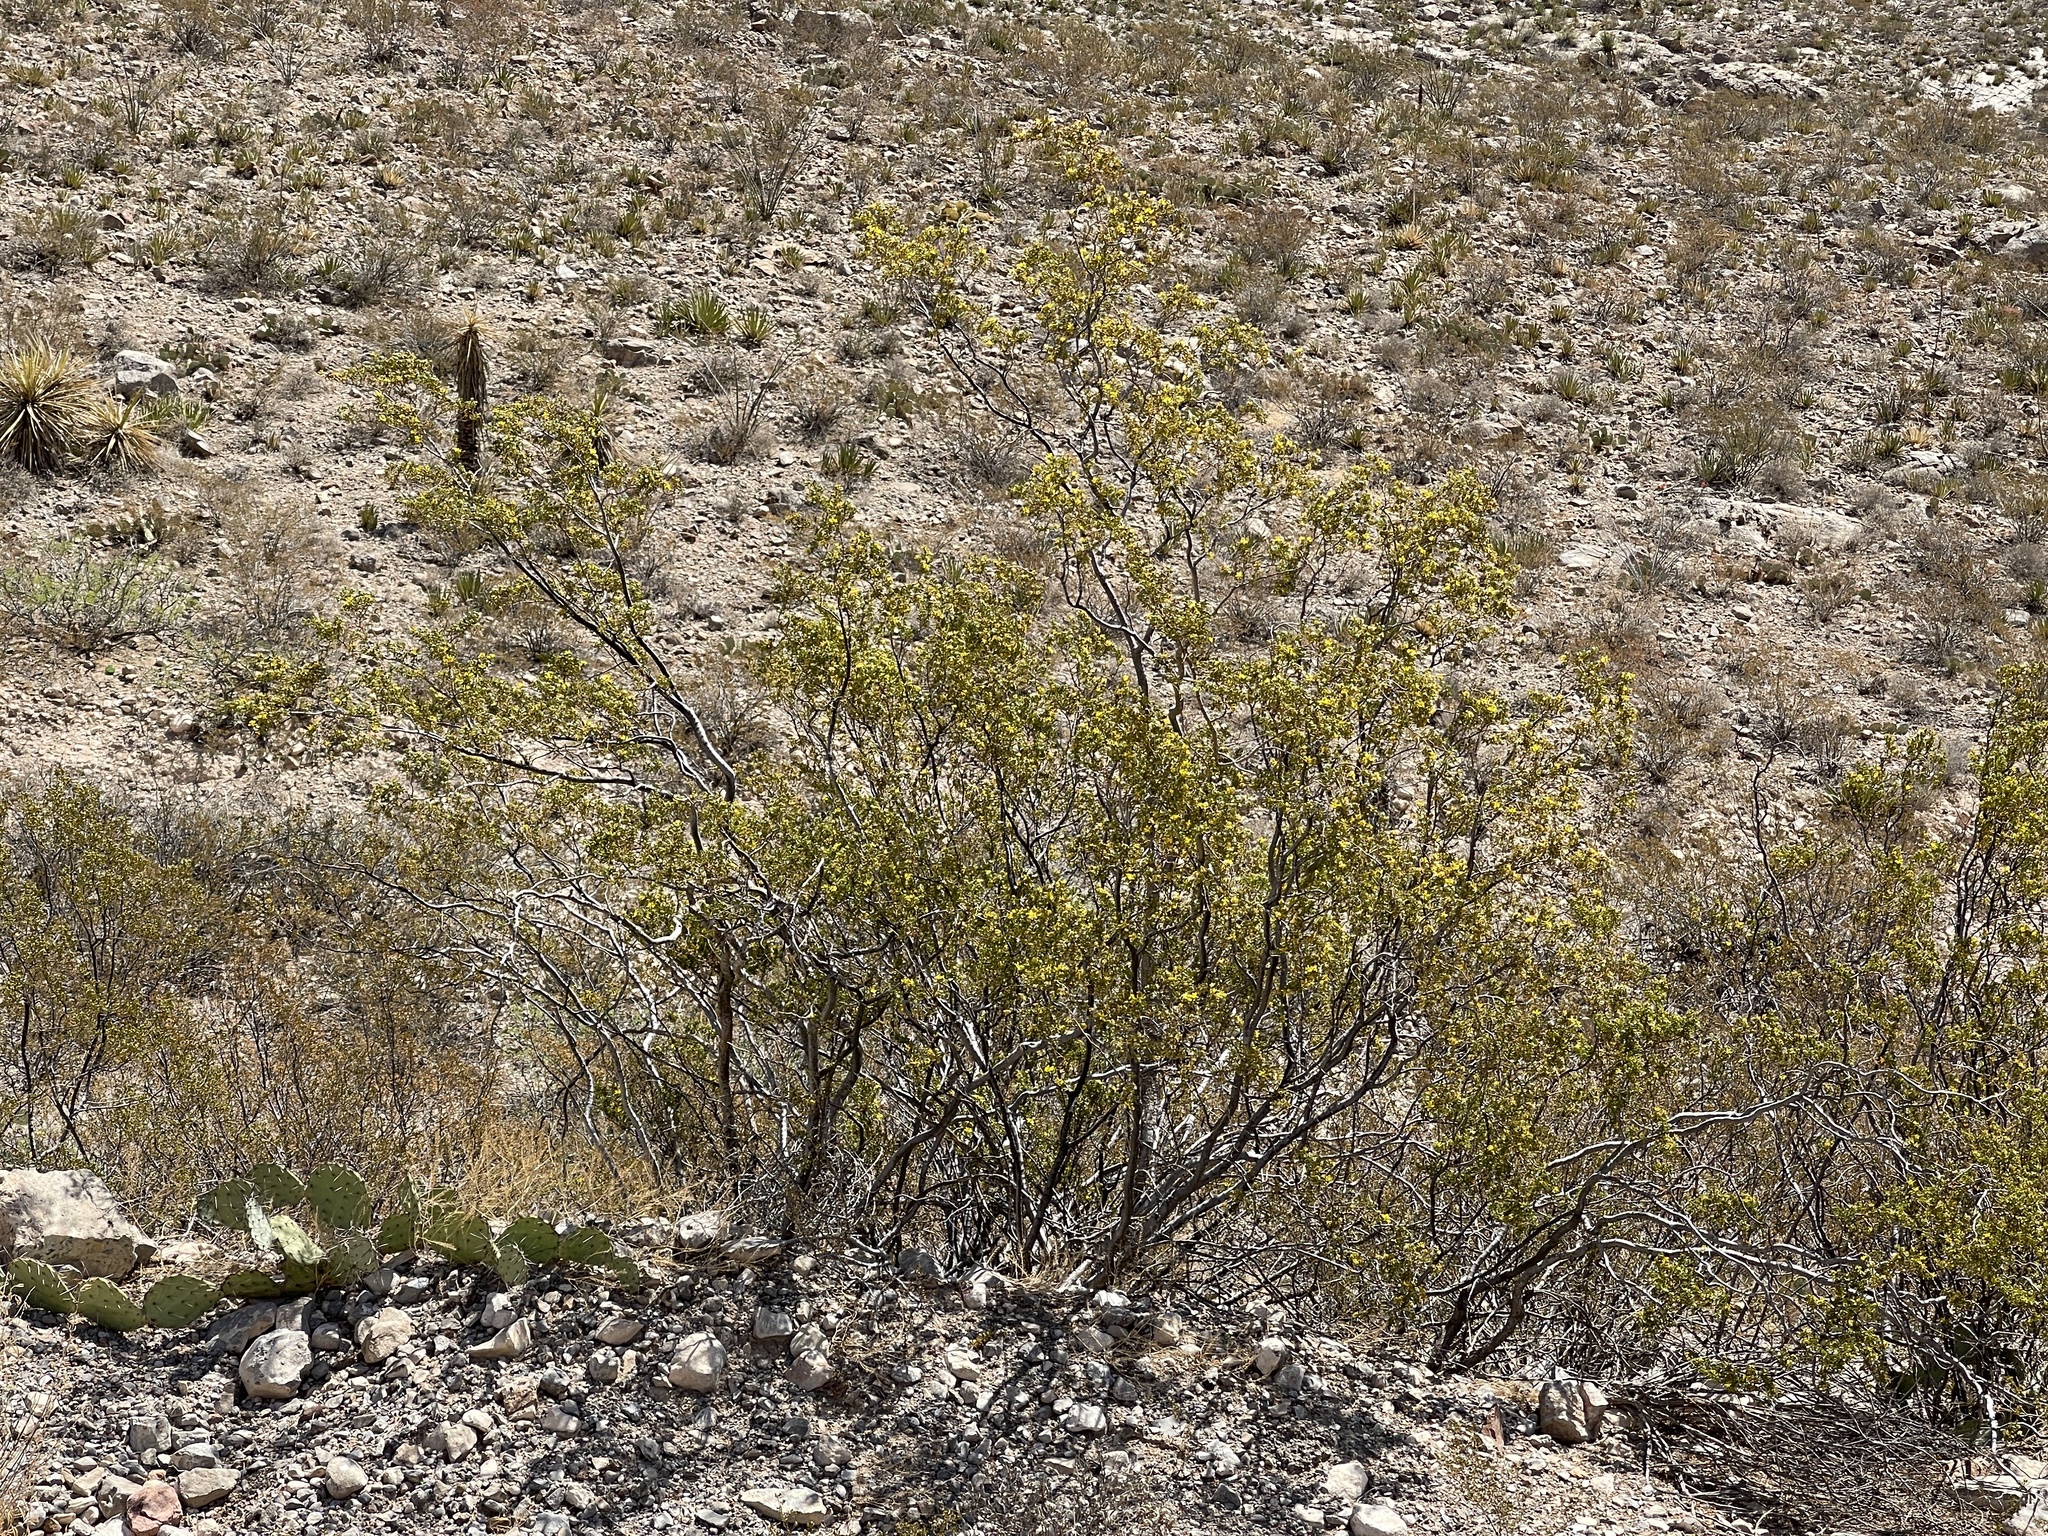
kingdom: Plantae
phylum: Tracheophyta
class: Magnoliopsida
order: Zygophyllales
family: Zygophyllaceae
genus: Larrea
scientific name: Larrea tridentata
